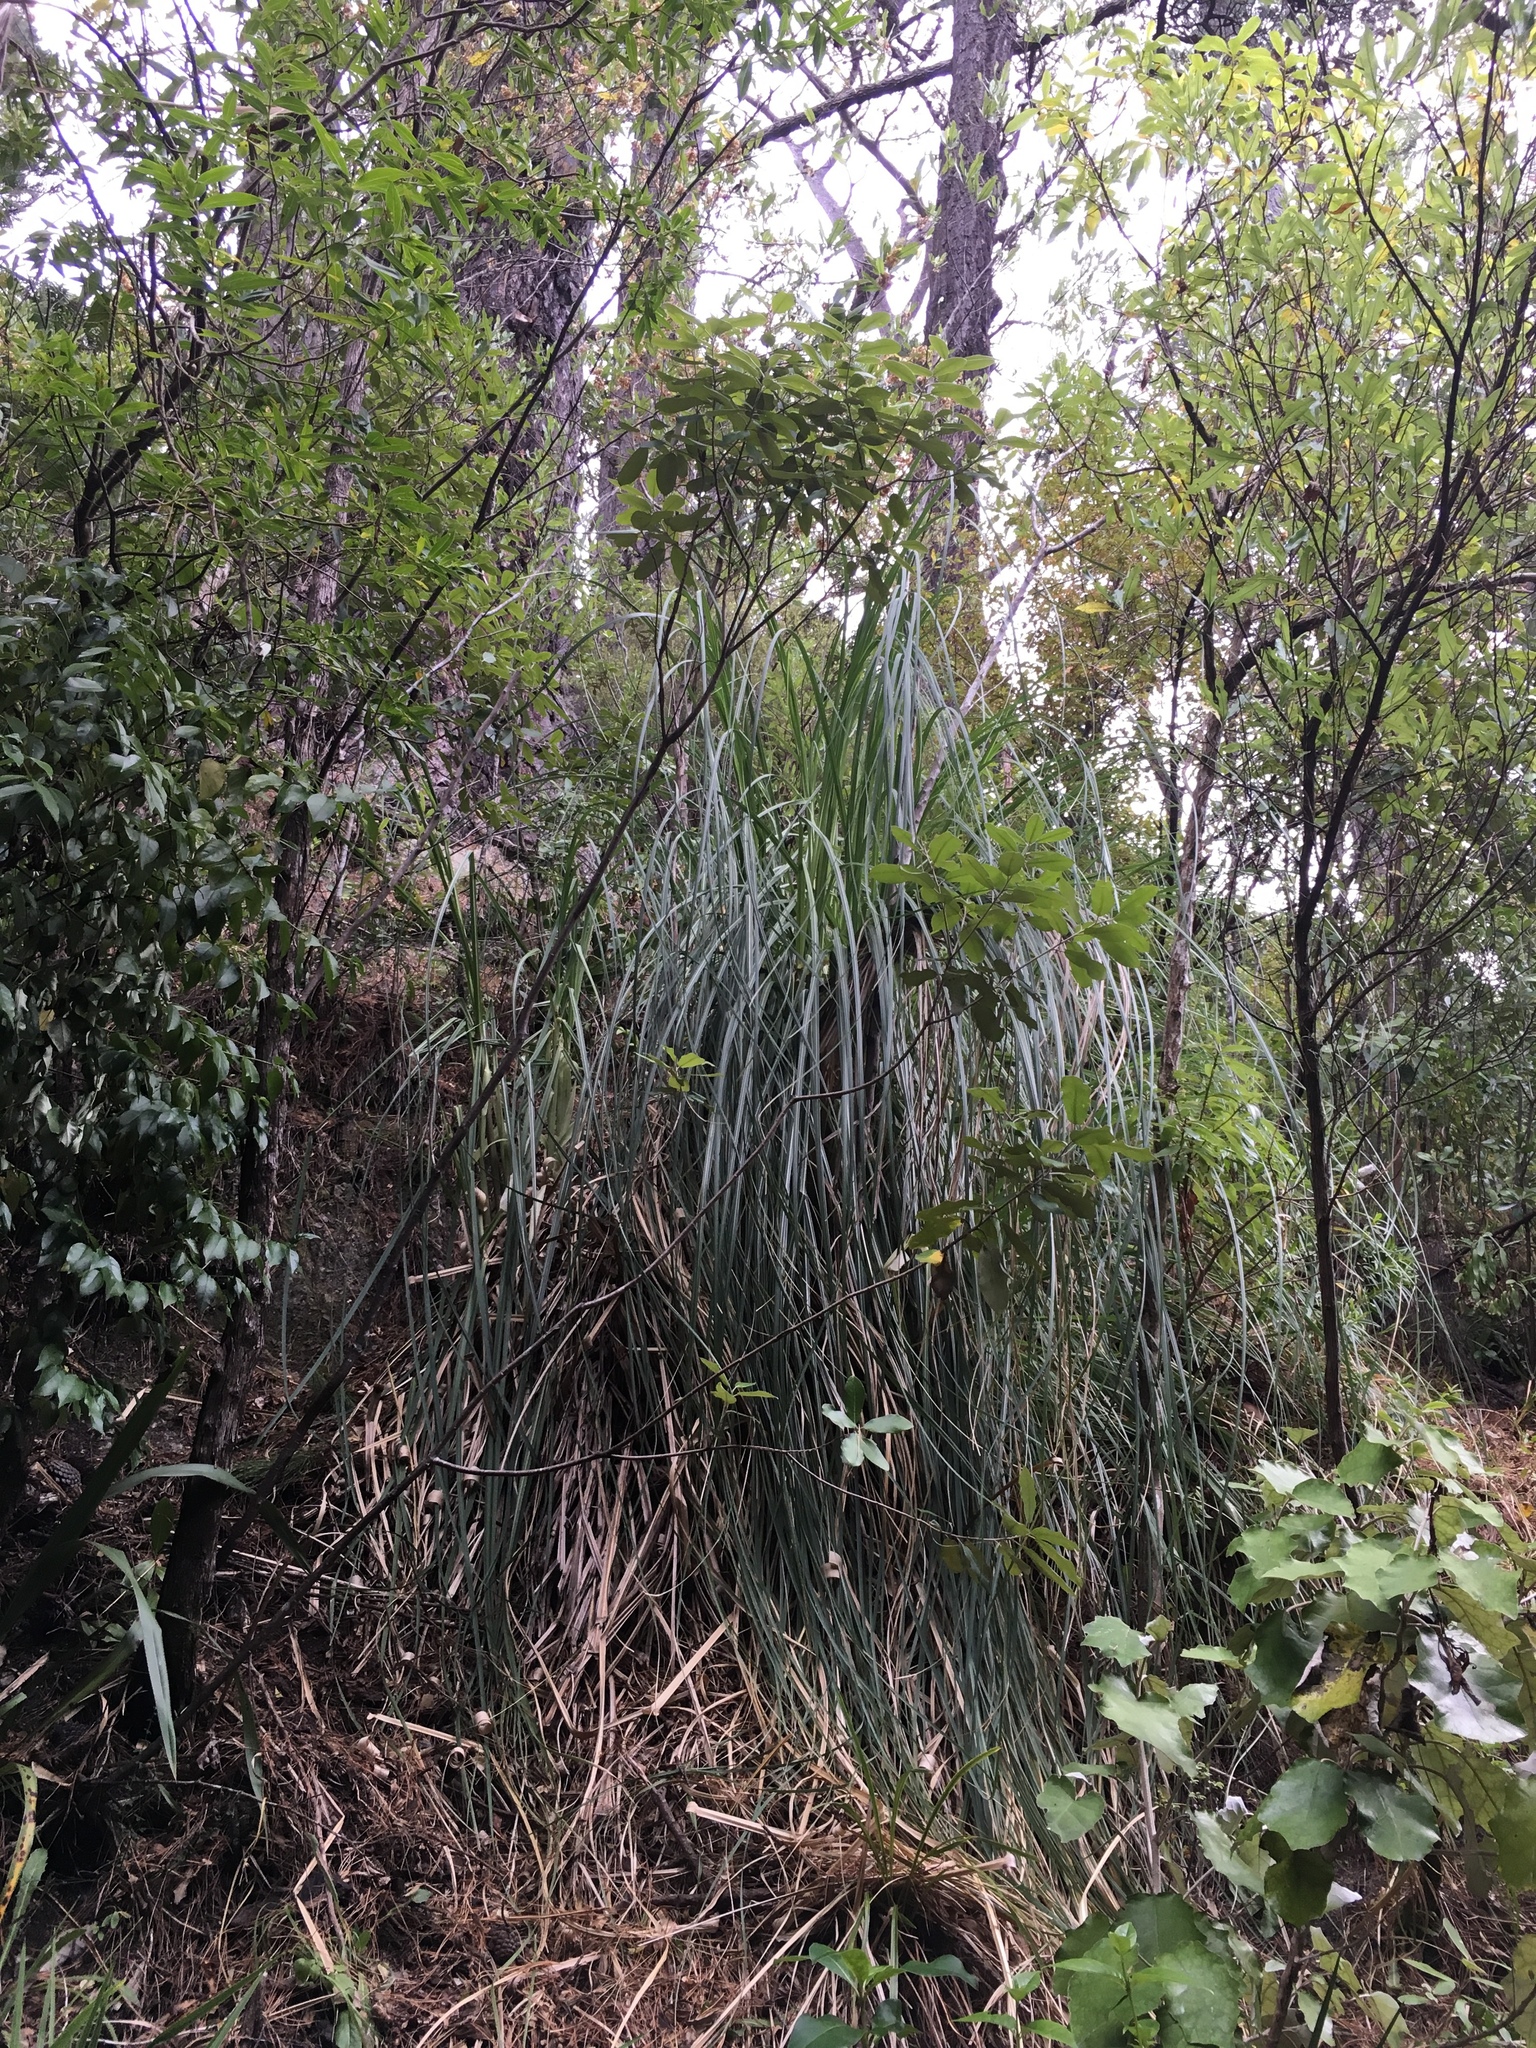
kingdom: Plantae
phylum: Tracheophyta
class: Liliopsida
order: Poales
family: Poaceae
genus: Cortaderia
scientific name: Cortaderia selloana
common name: Uruguayan pampas grass
